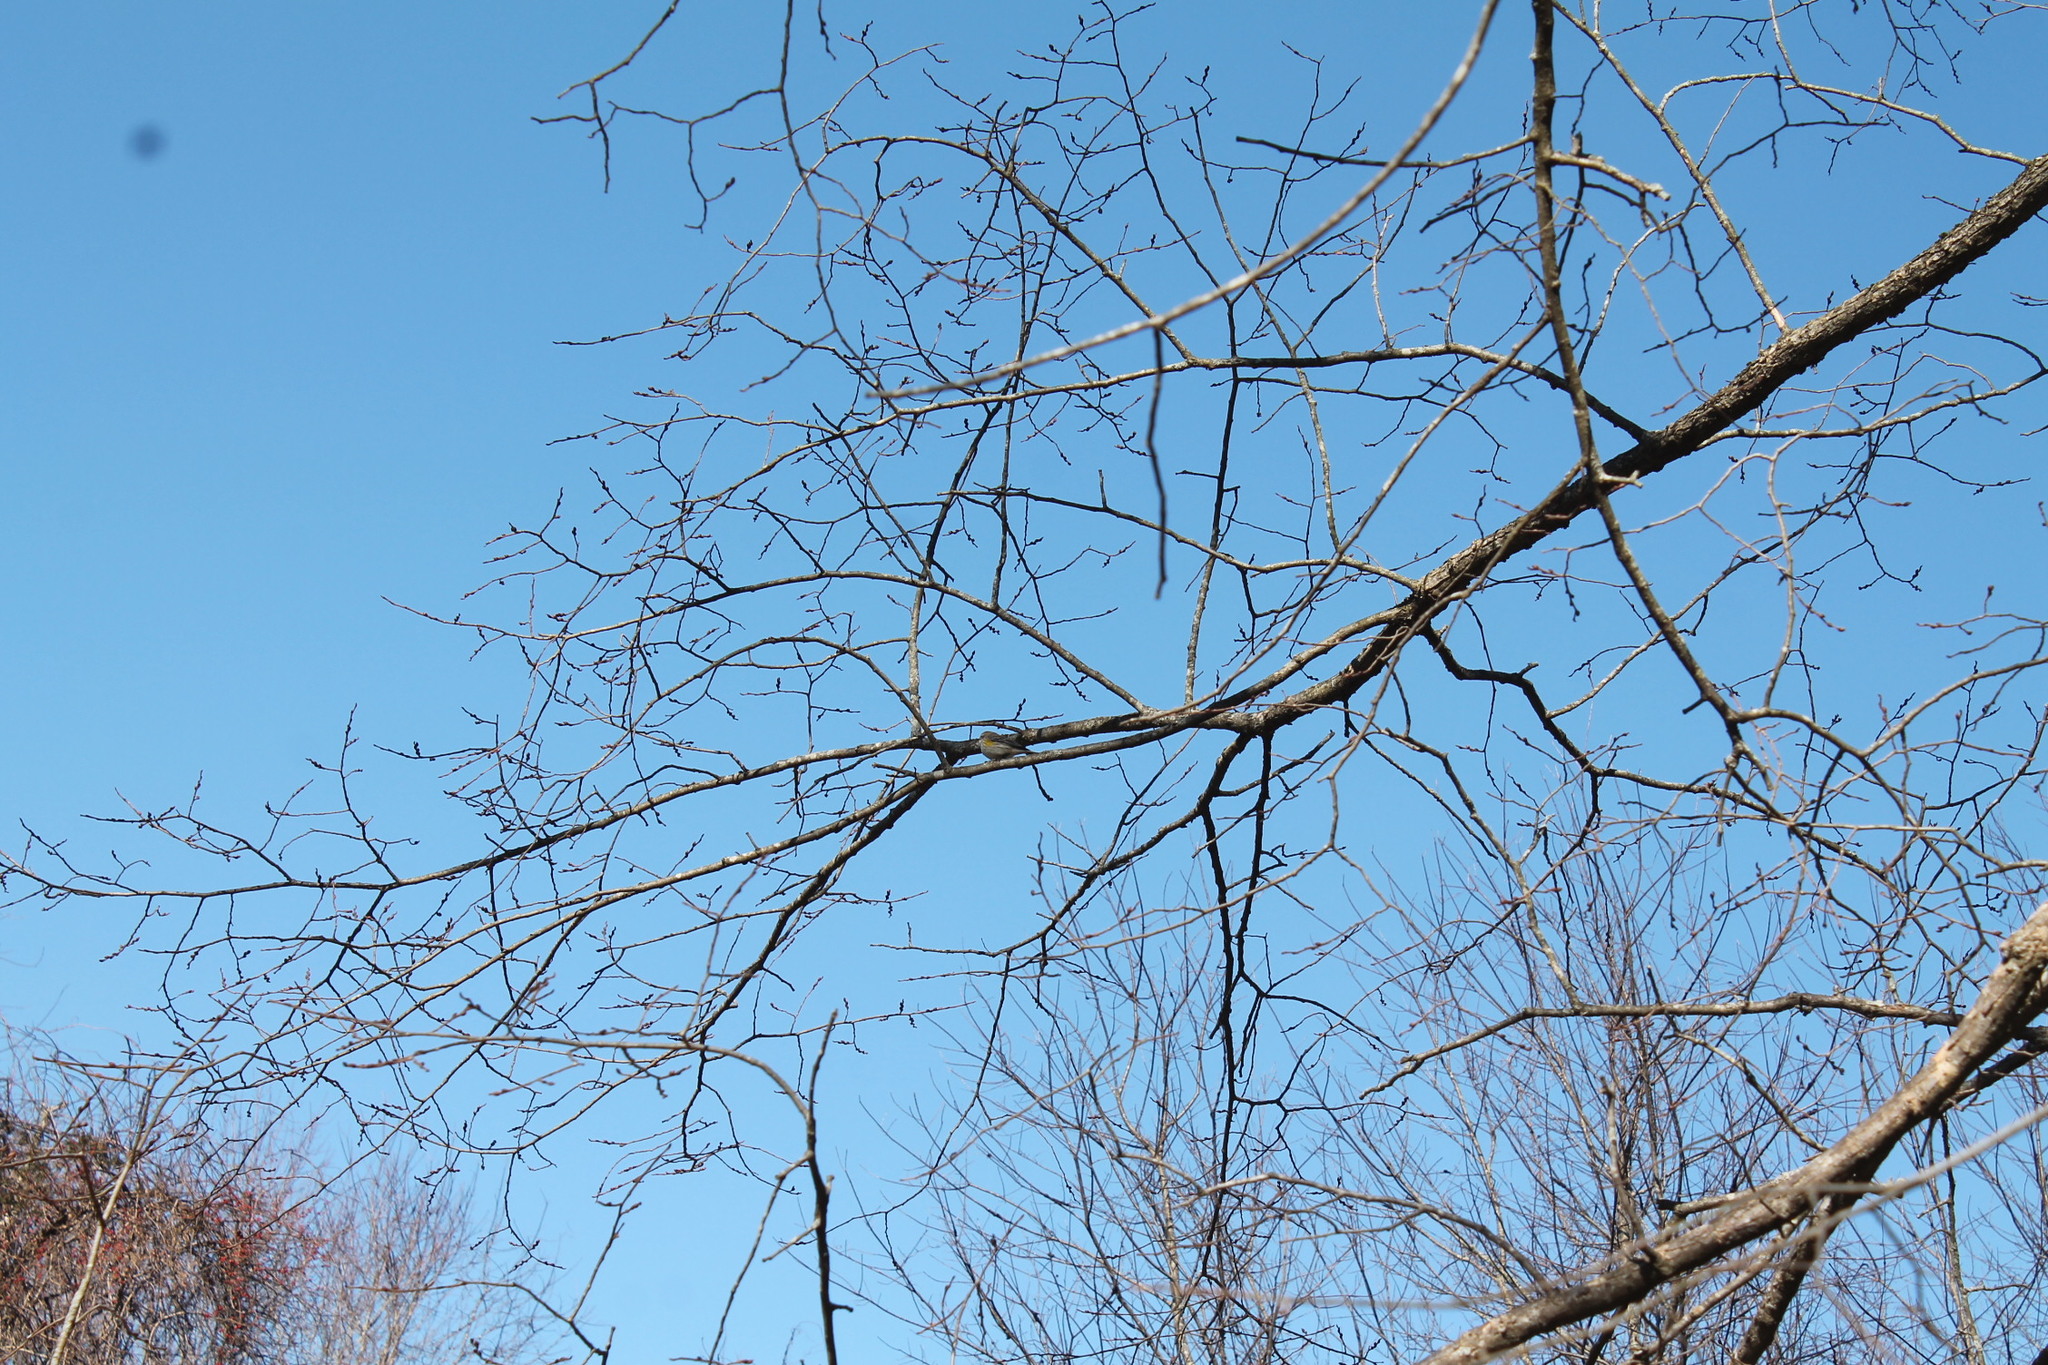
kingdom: Animalia
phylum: Chordata
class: Aves
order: Passeriformes
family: Parulidae
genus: Setophaga
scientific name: Setophaga coronata
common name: Myrtle warbler
